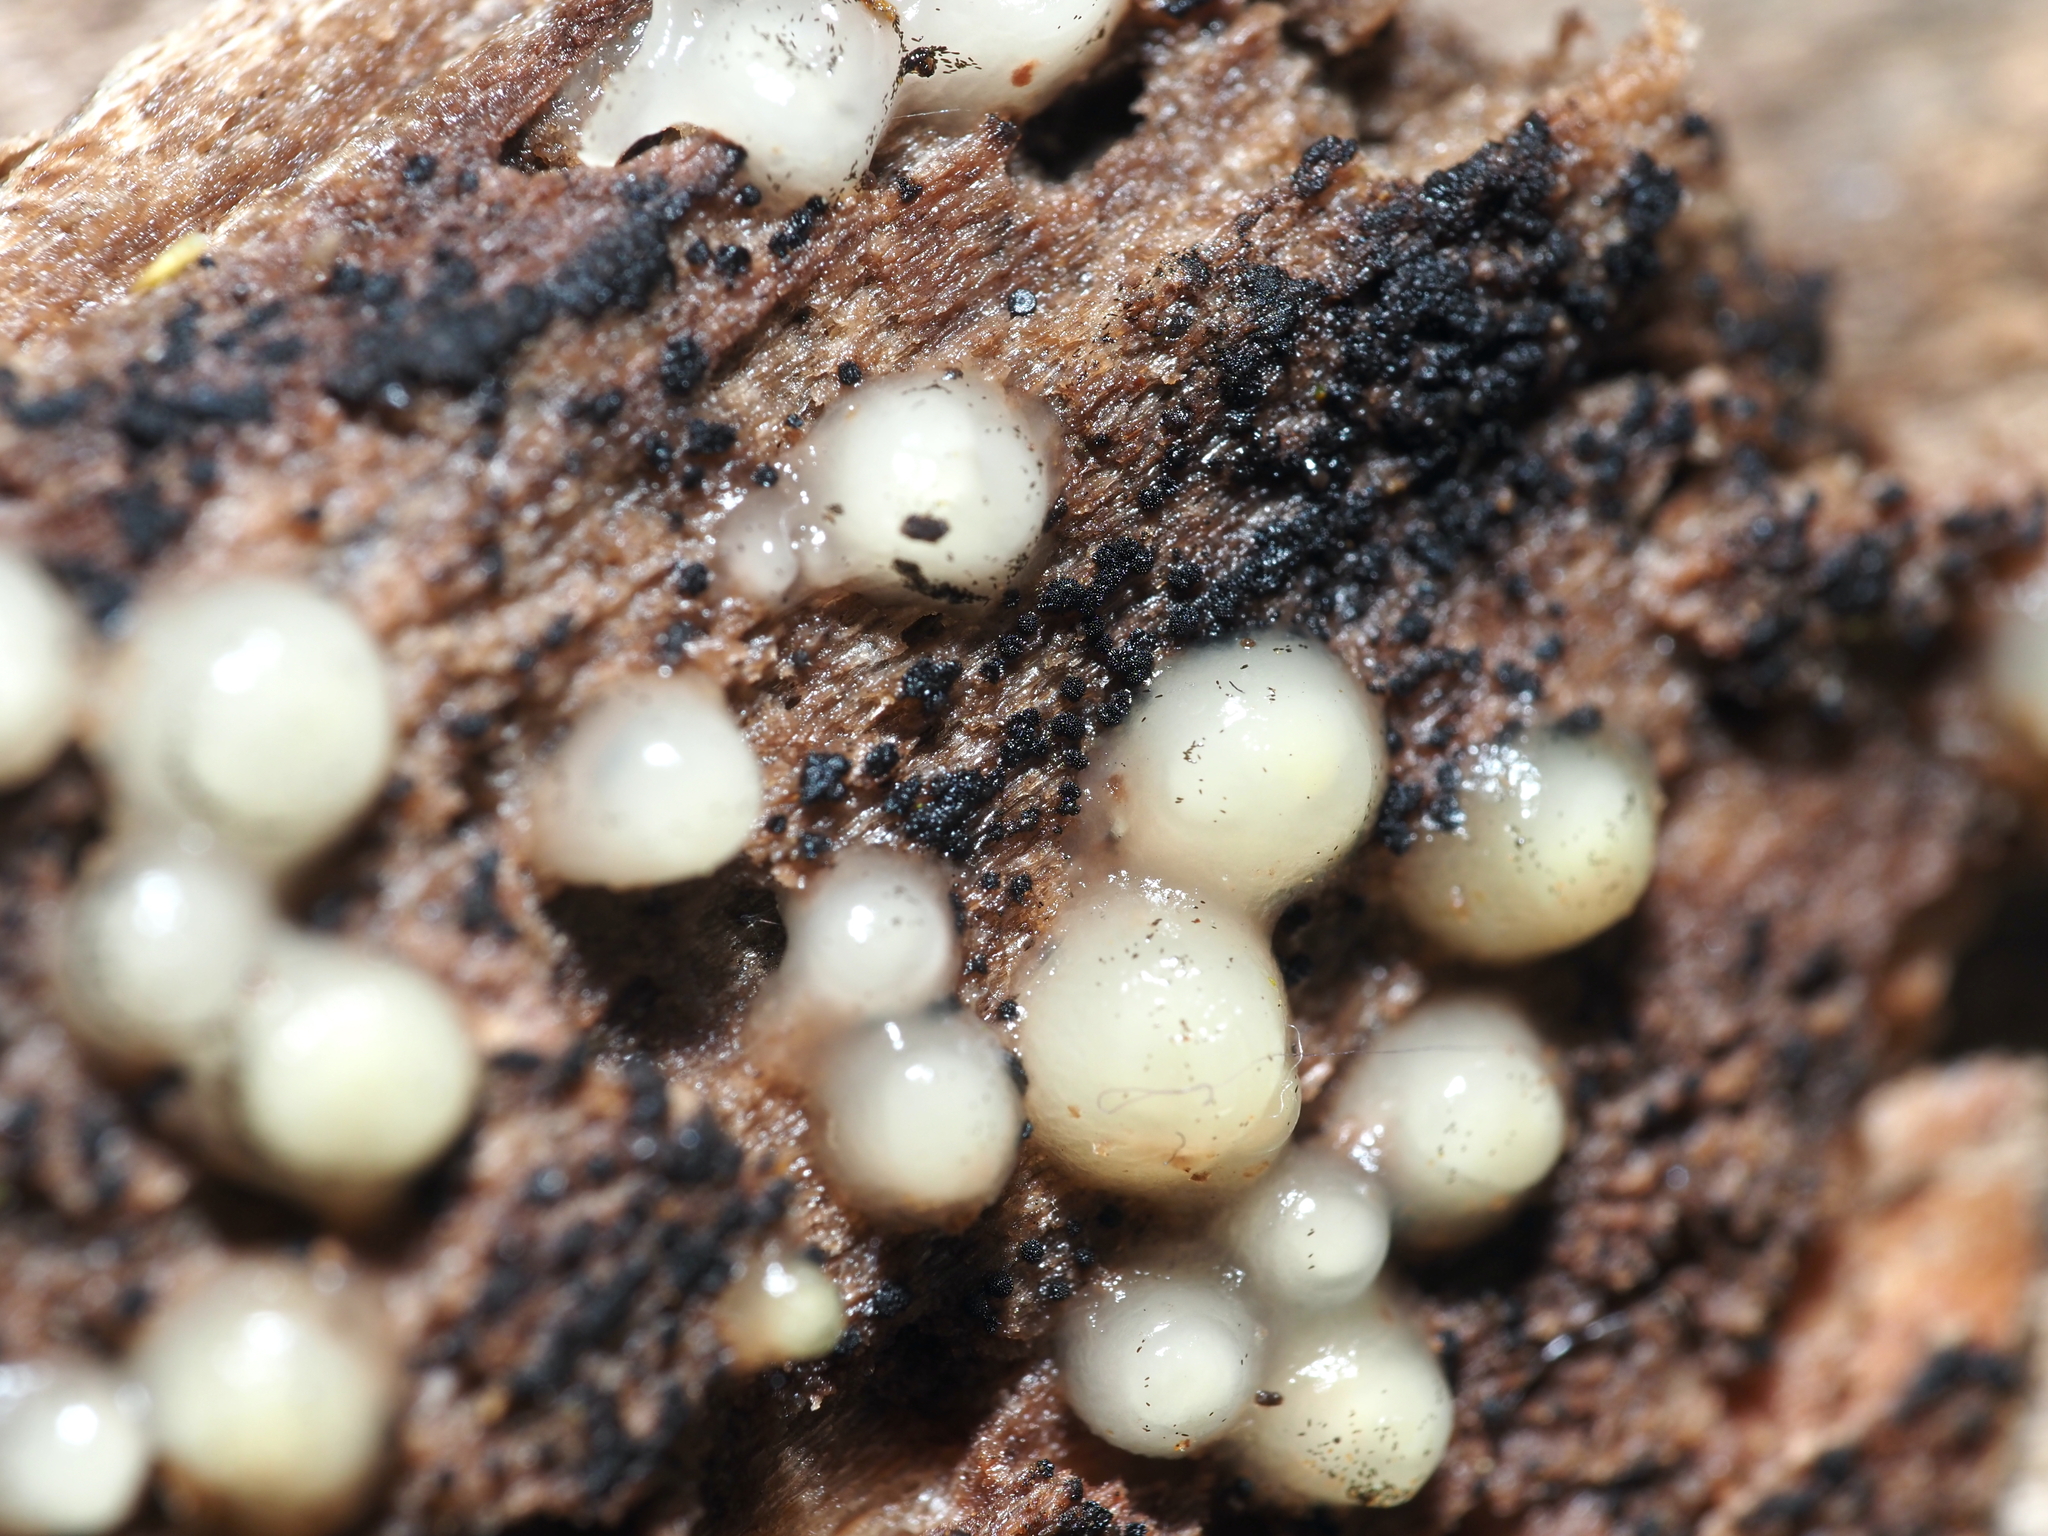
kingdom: Fungi
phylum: Basidiomycota
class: Atractiellomycetes
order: Atractiellales
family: Phleogenaceae
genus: Helicogloea
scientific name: Helicogloea compressa
